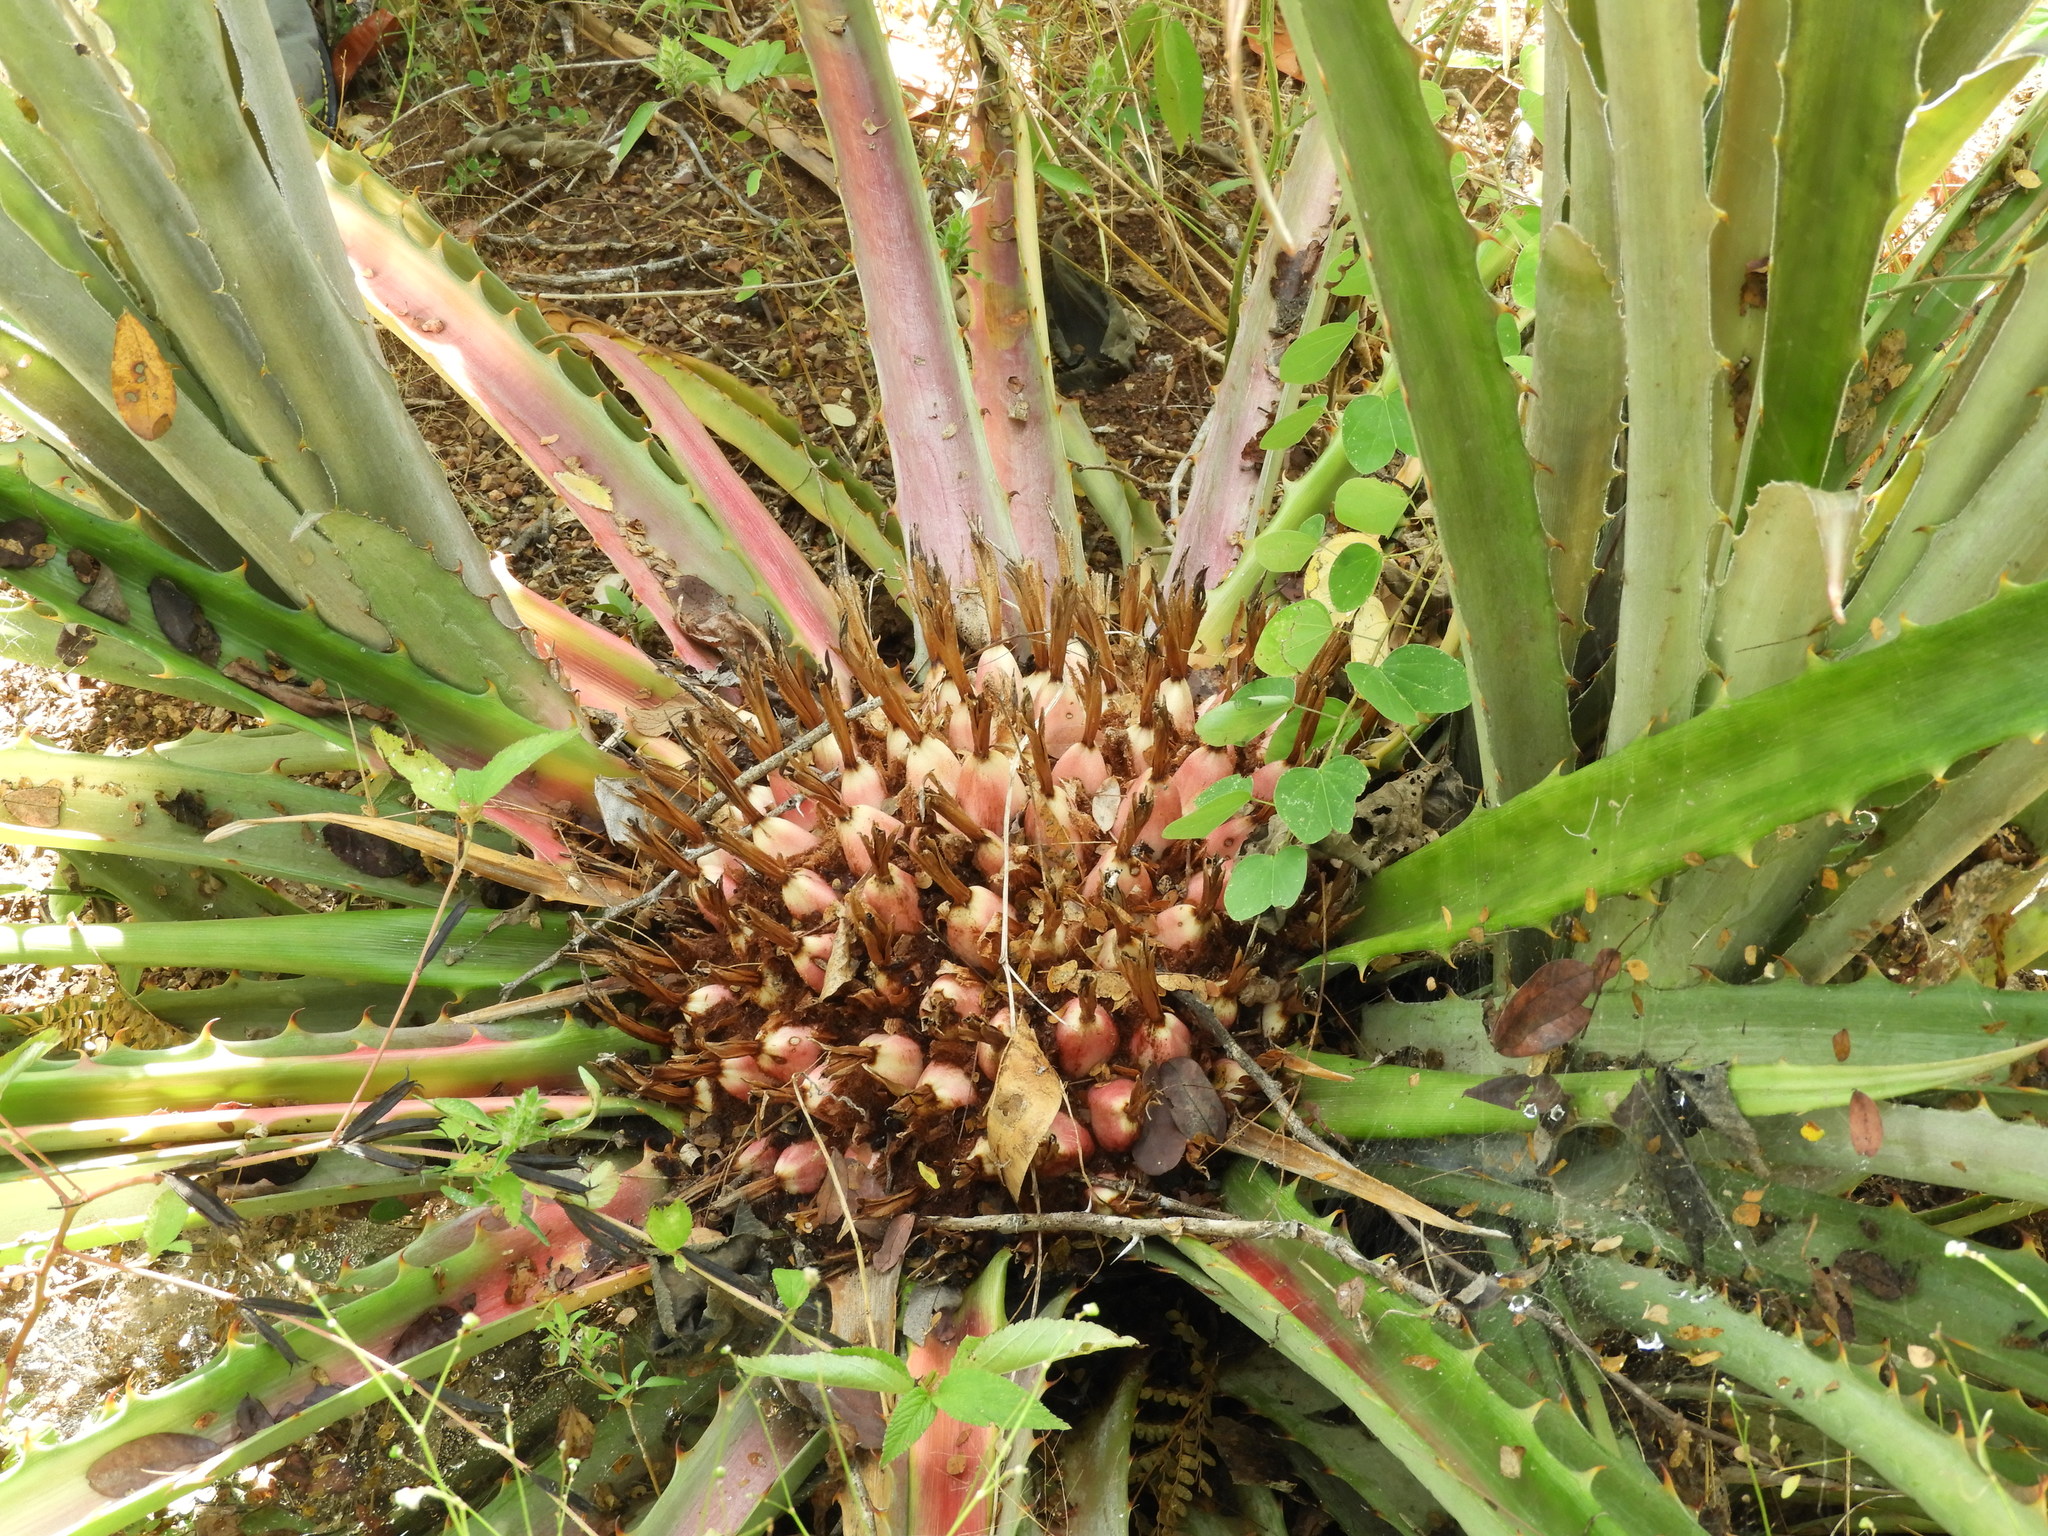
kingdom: Plantae
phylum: Tracheophyta
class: Liliopsida
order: Poales
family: Bromeliaceae
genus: Bromelia
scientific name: Bromelia karatas
